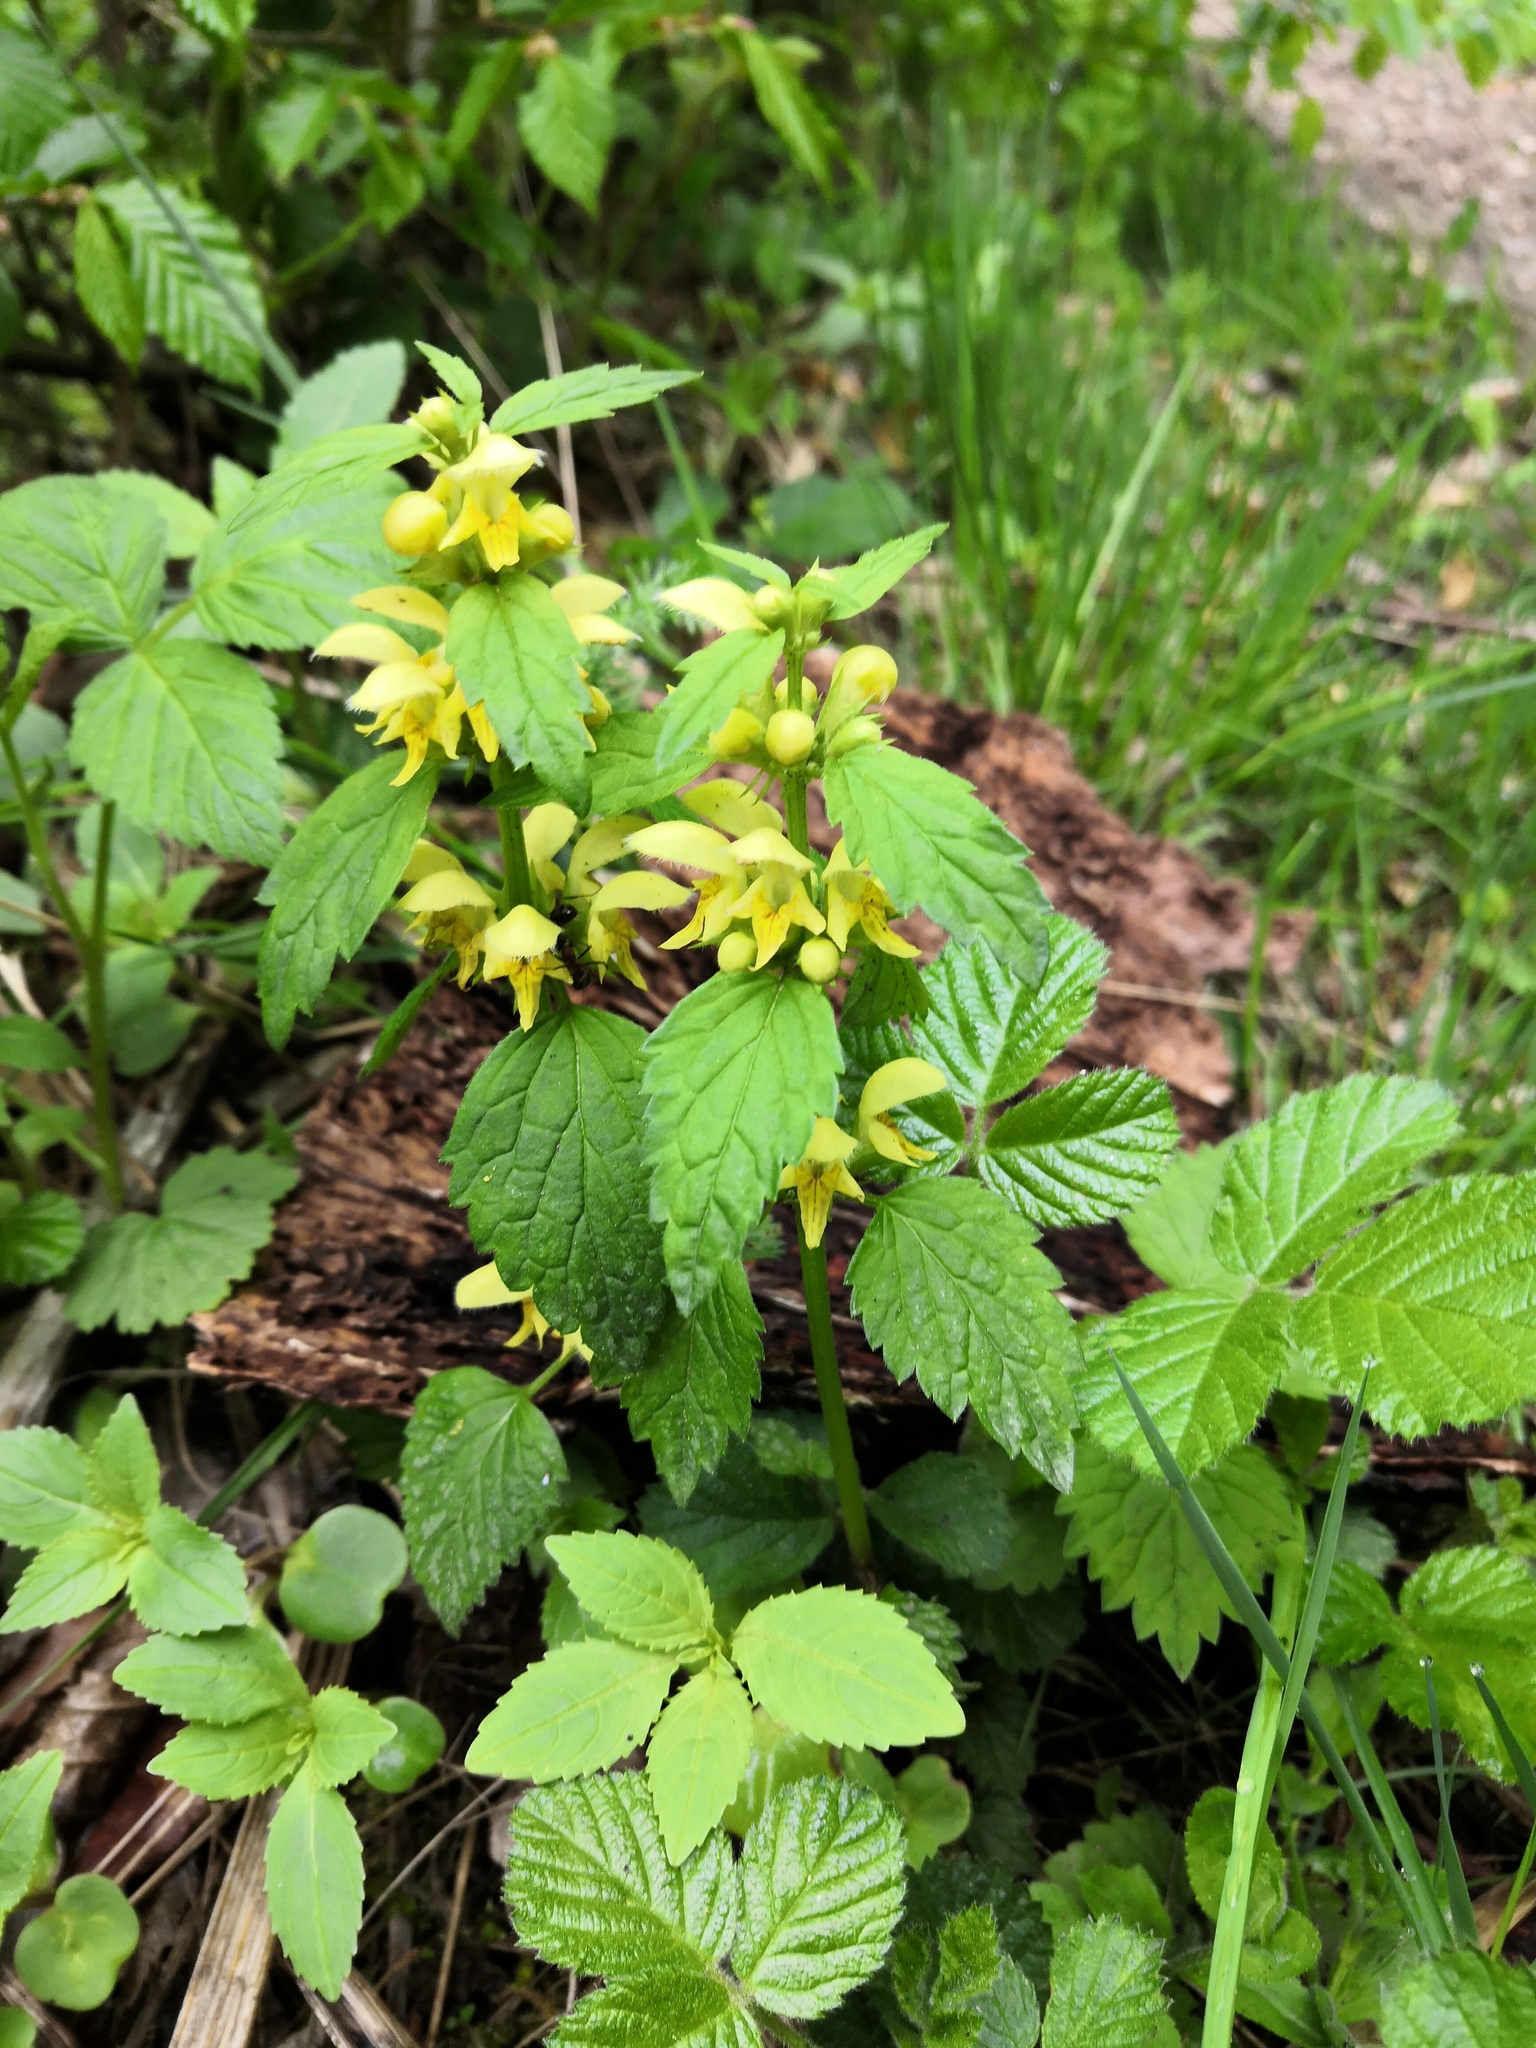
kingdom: Plantae
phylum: Tracheophyta
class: Magnoliopsida
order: Lamiales
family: Lamiaceae
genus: Lamium
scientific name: Lamium galeobdolon
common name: Yellow archangel
